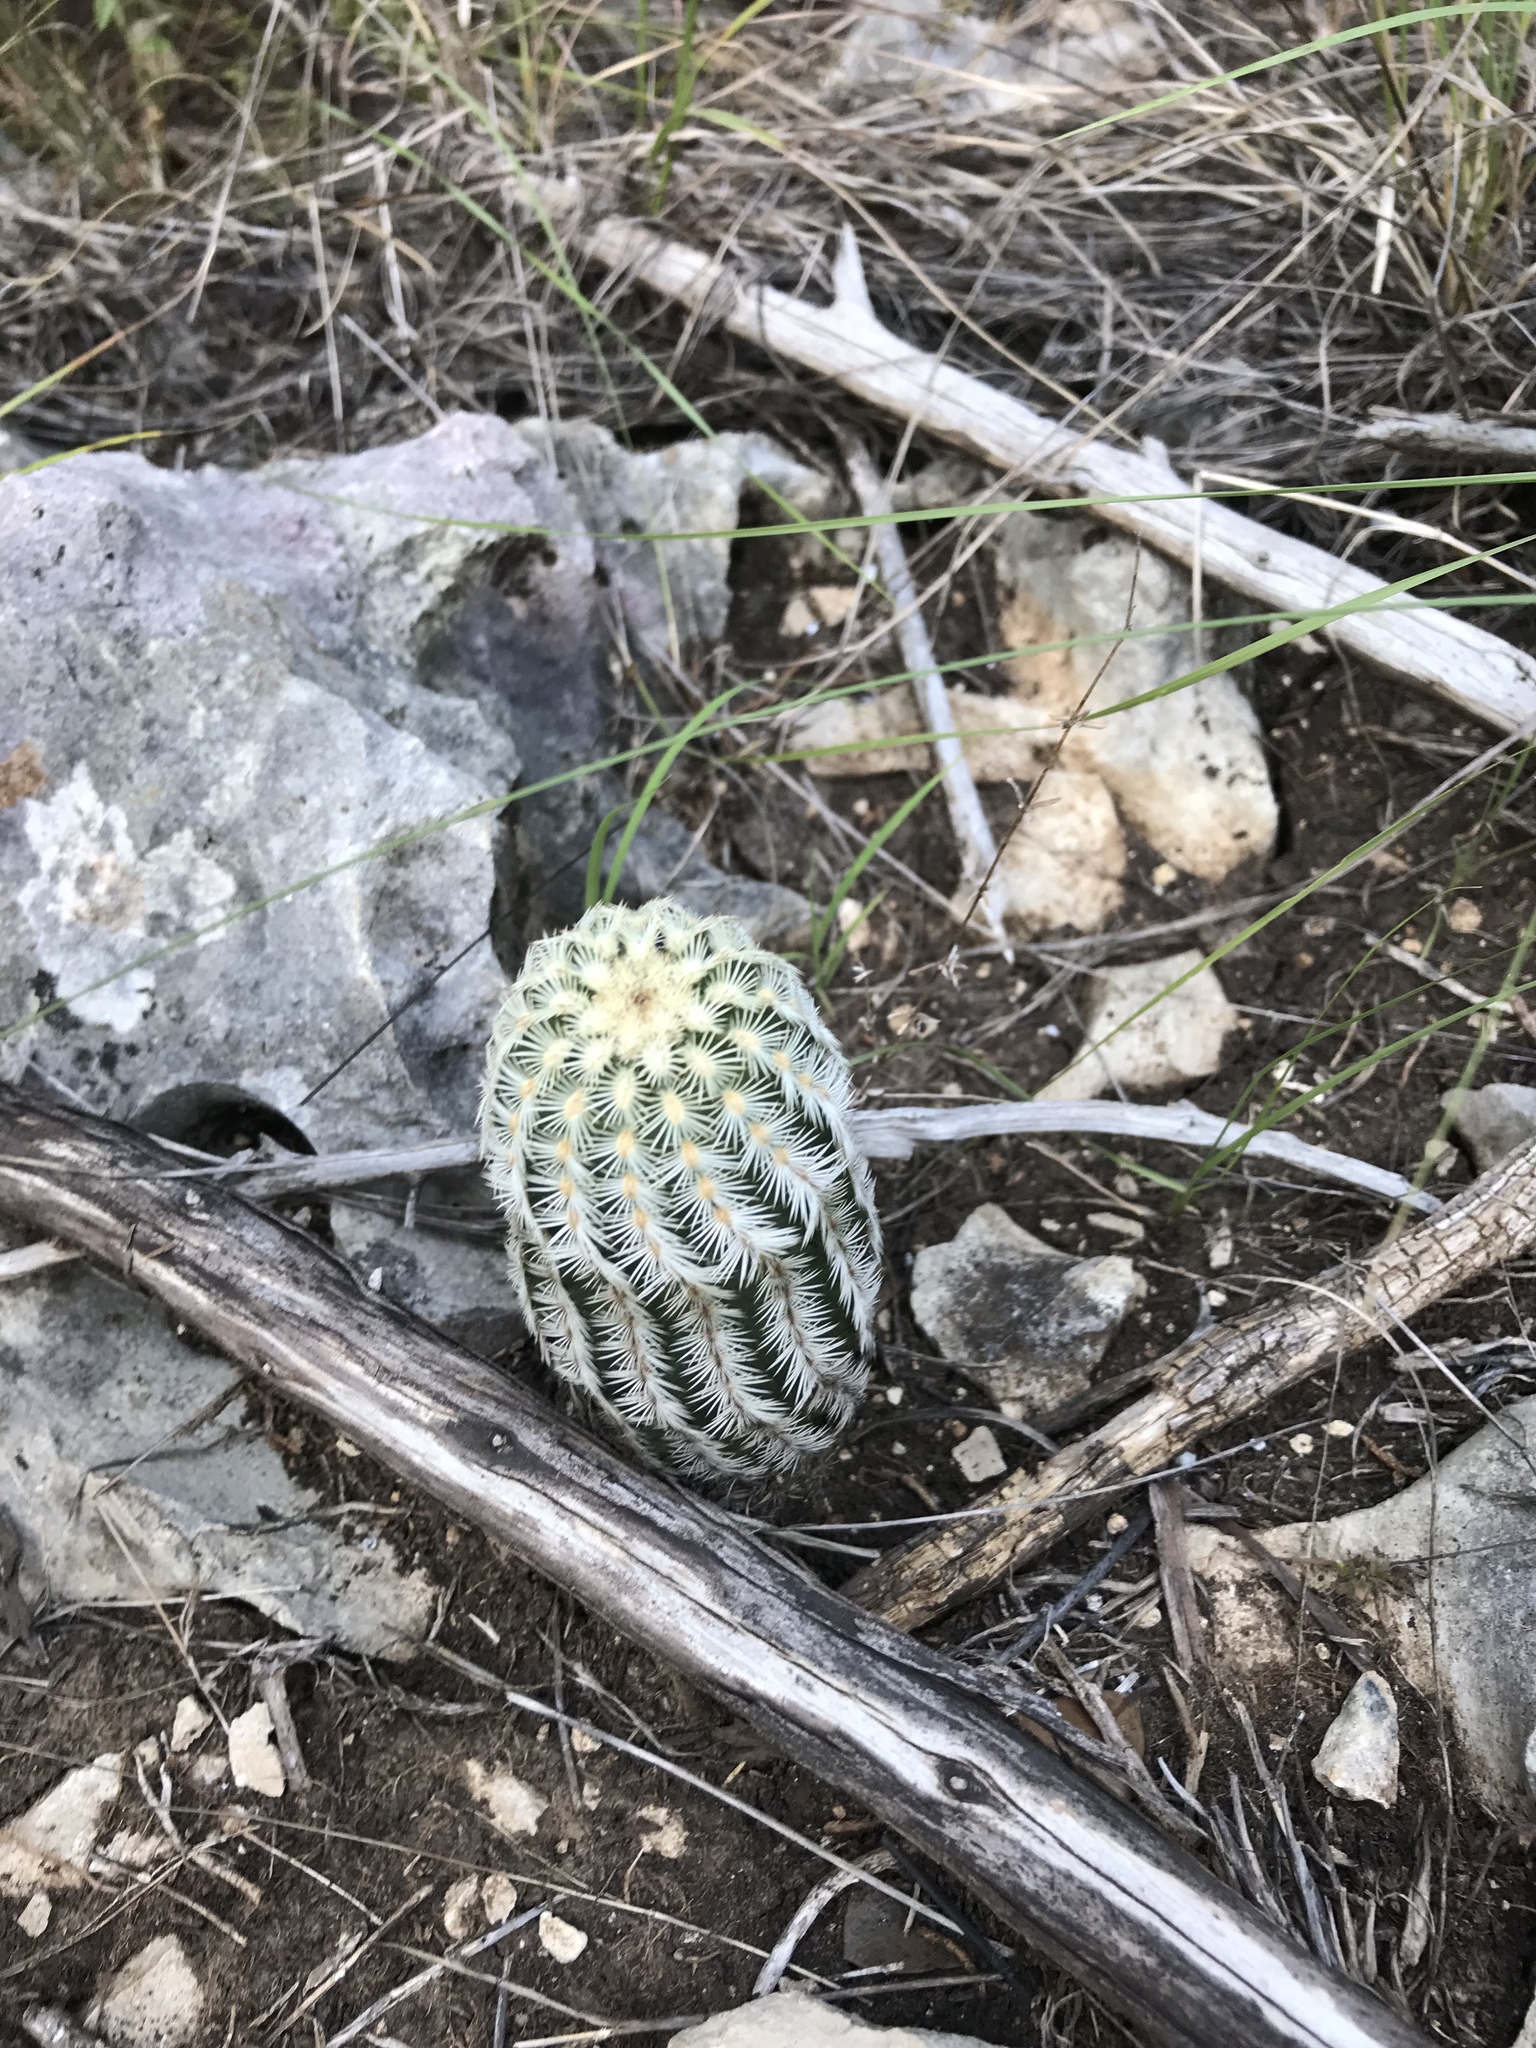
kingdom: Plantae
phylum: Tracheophyta
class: Magnoliopsida
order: Caryophyllales
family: Cactaceae
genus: Echinocereus
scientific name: Echinocereus reichenbachii
